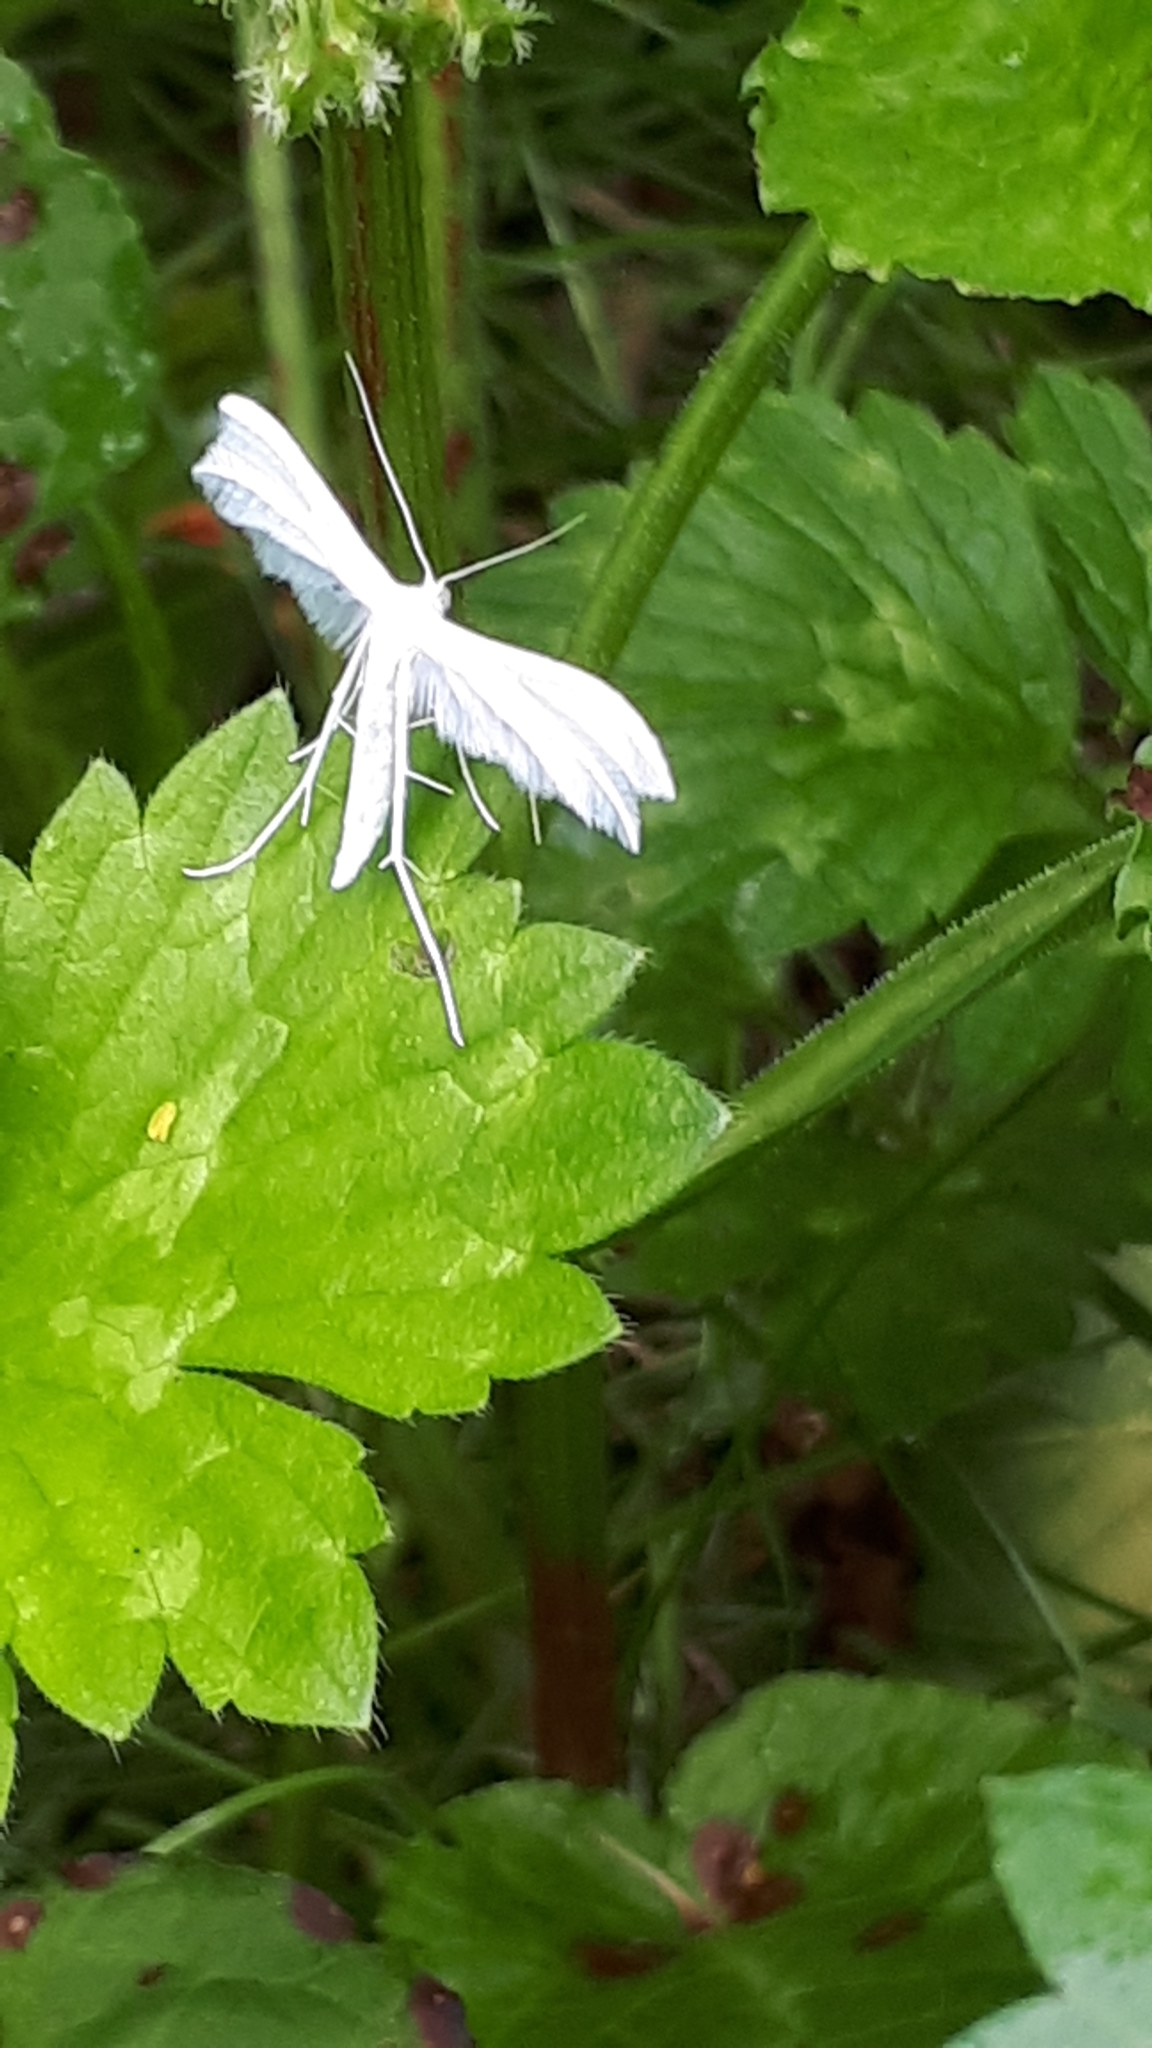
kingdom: Animalia
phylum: Arthropoda
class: Insecta
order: Lepidoptera
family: Pterophoridae
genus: Pterophorus
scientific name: Pterophorus pentadactyla
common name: White plume moth
